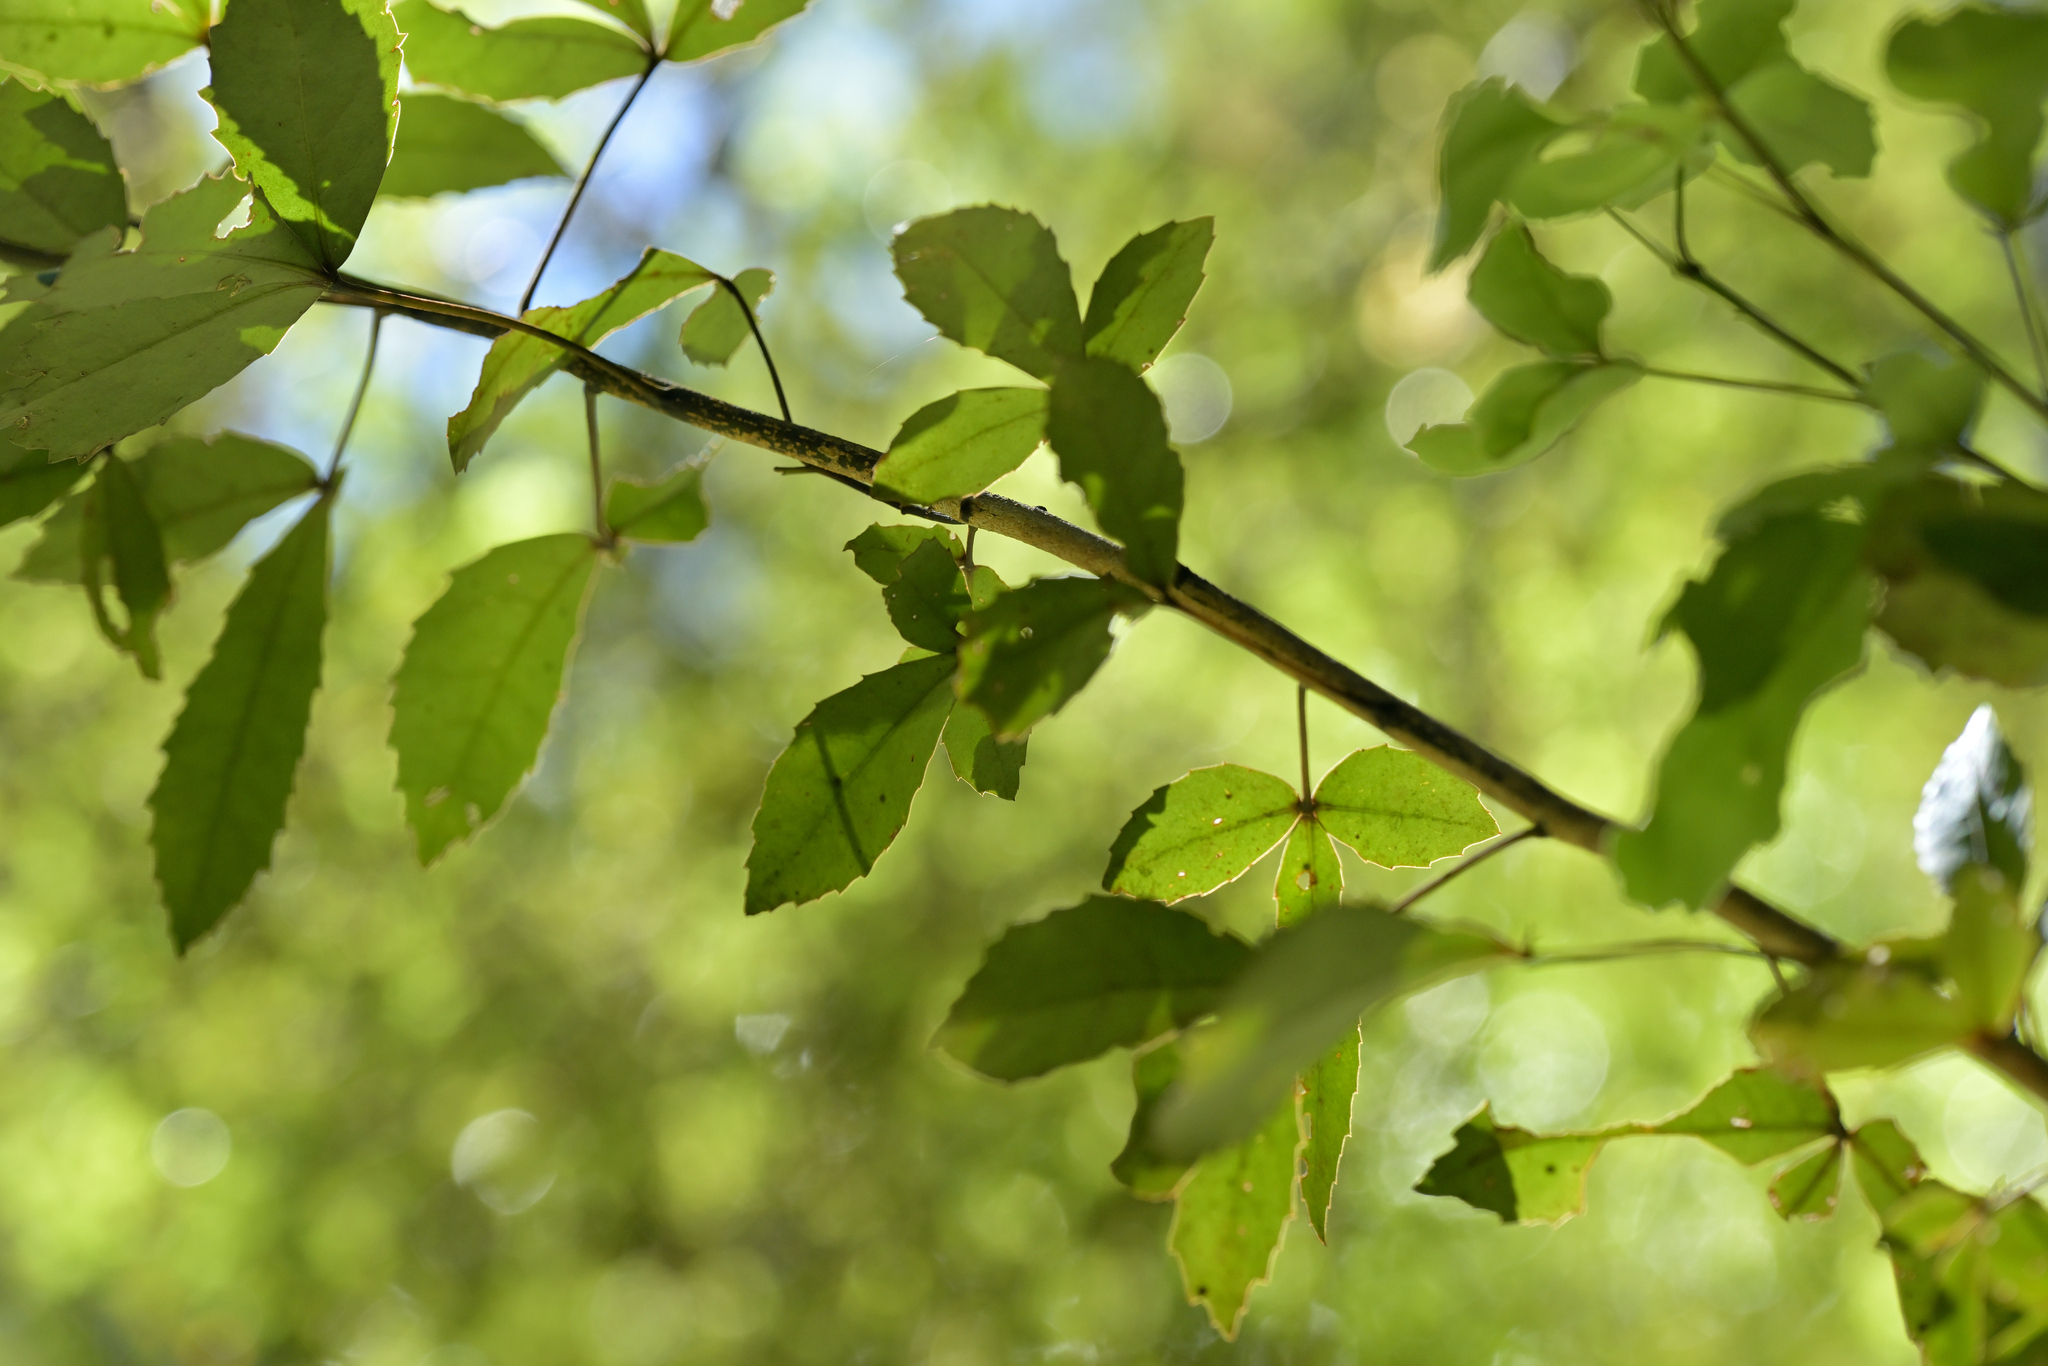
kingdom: Plantae
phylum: Tracheophyta
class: Magnoliopsida
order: Apiales
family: Araliaceae
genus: Raukaua
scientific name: Raukaua simplex
